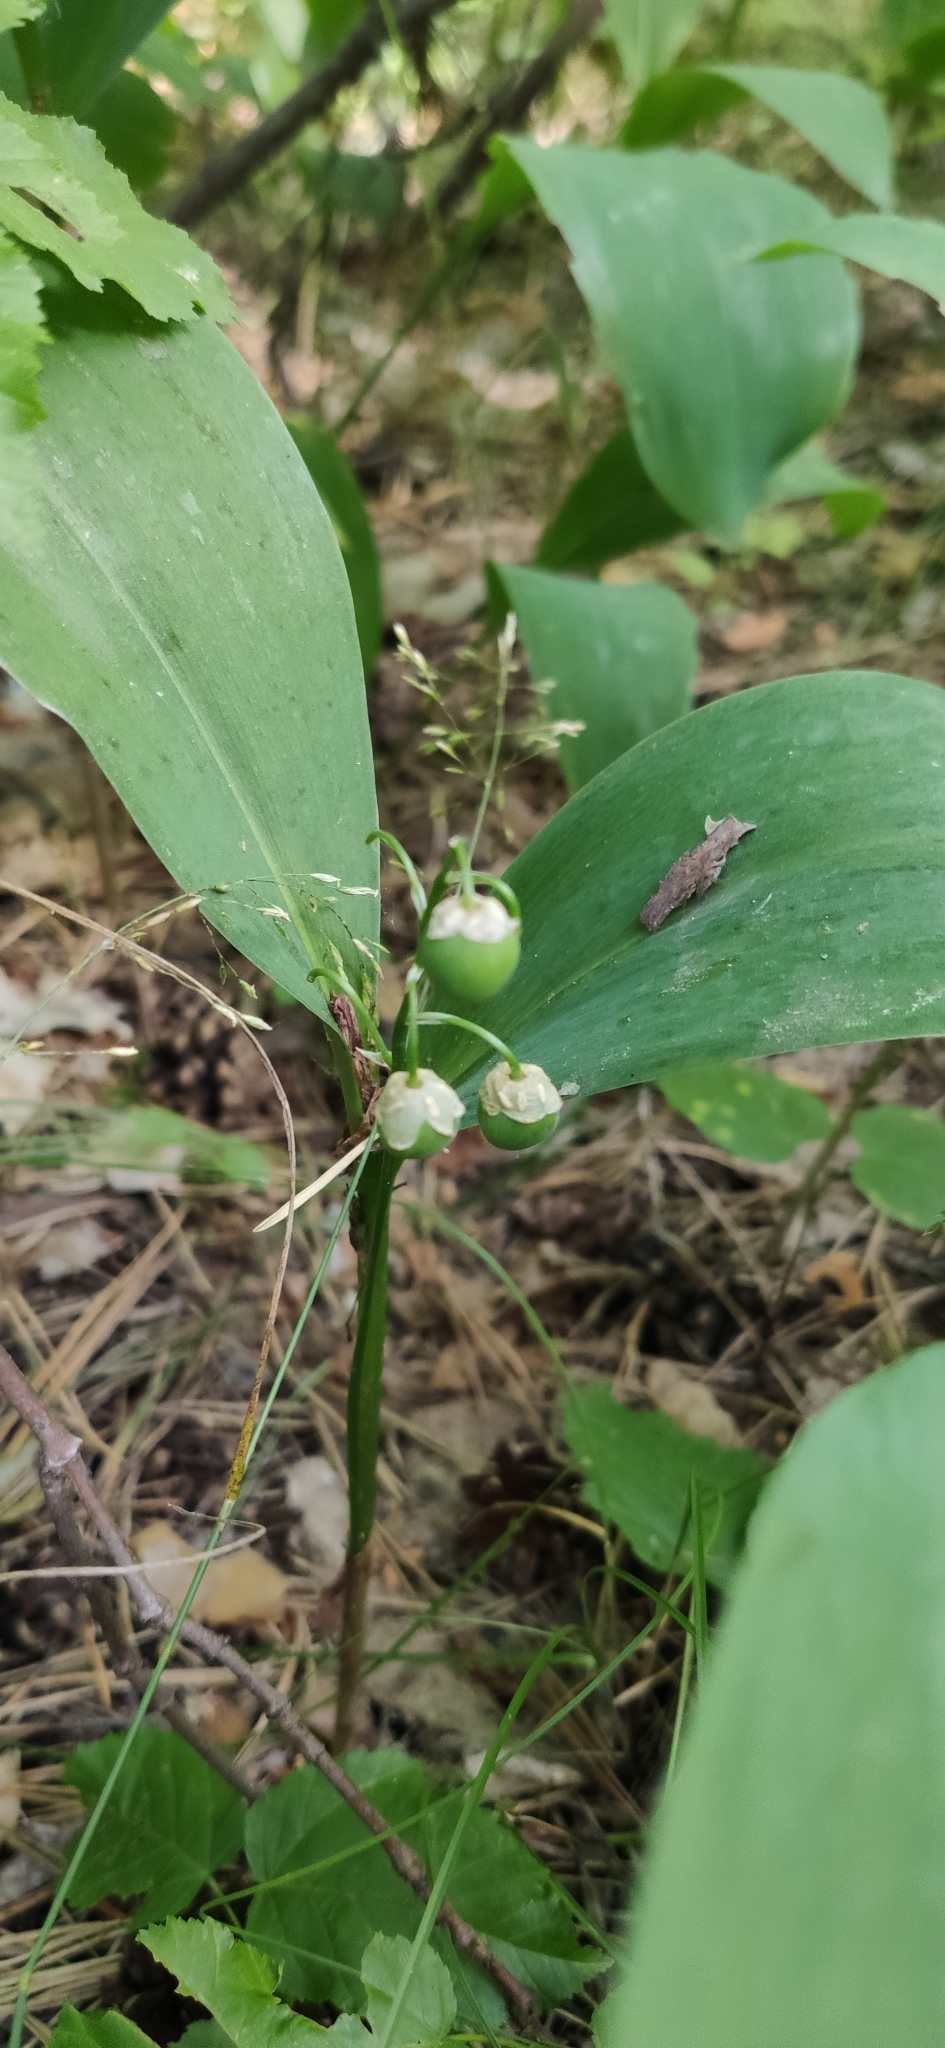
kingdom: Plantae
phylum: Tracheophyta
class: Liliopsida
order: Asparagales
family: Asparagaceae
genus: Convallaria
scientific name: Convallaria majalis
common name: Lily-of-the-valley
